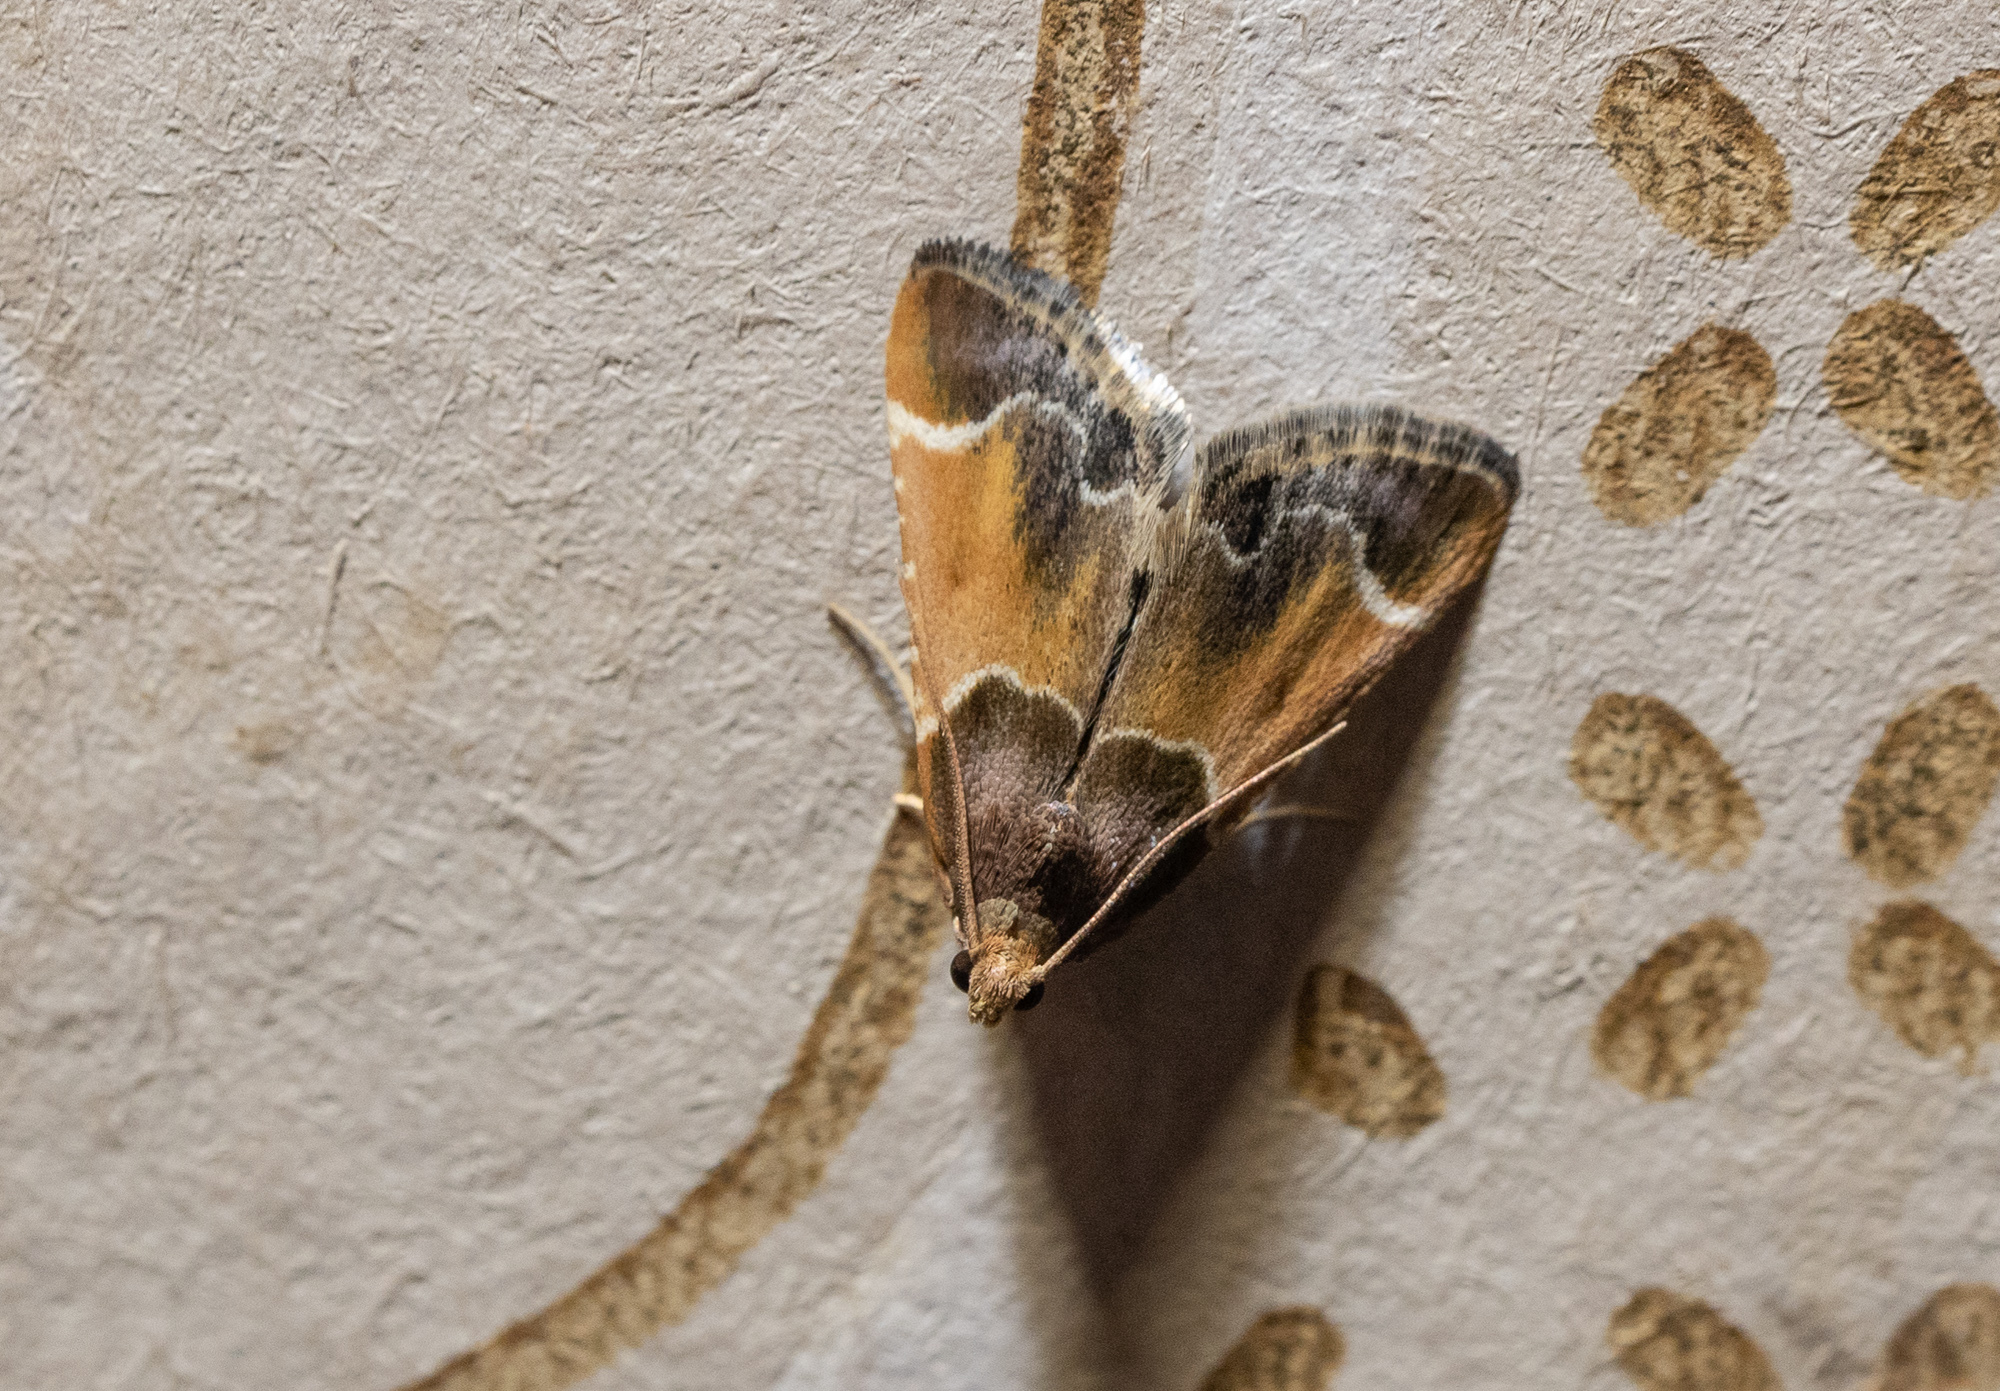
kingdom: Animalia
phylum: Arthropoda
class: Insecta
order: Lepidoptera
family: Pyralidae
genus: Pyralis
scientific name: Pyralis farinalis
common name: Meal moth
